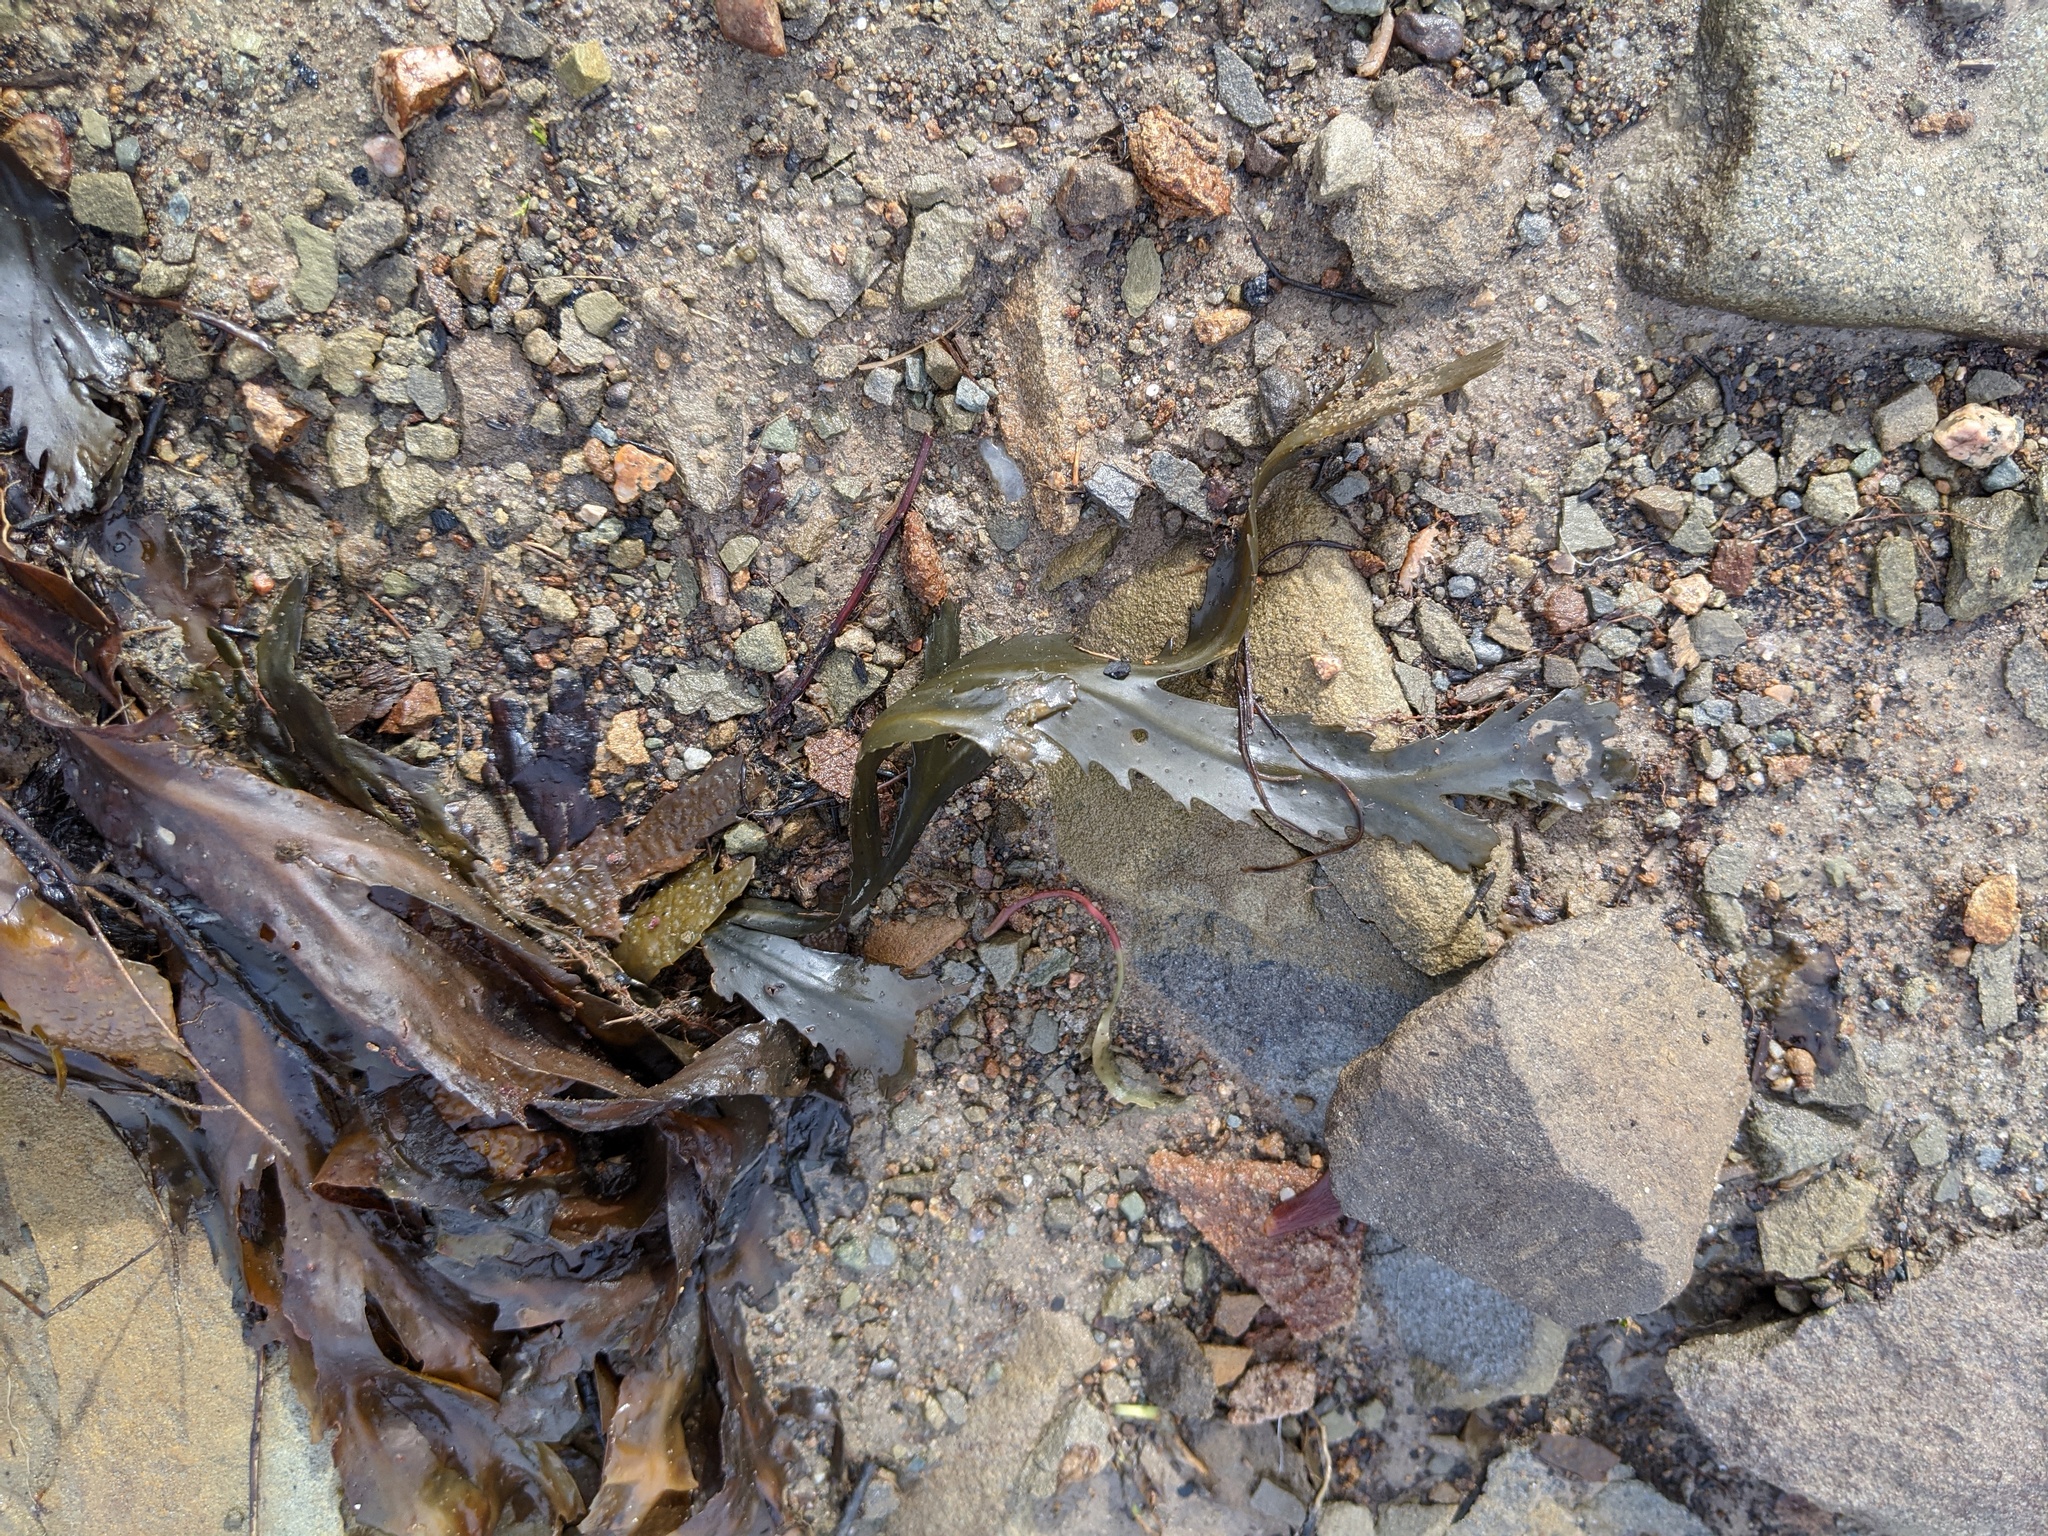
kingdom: Chromista
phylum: Ochrophyta
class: Phaeophyceae
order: Fucales
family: Fucaceae
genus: Fucus
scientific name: Fucus serratus
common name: Toothed wrack
